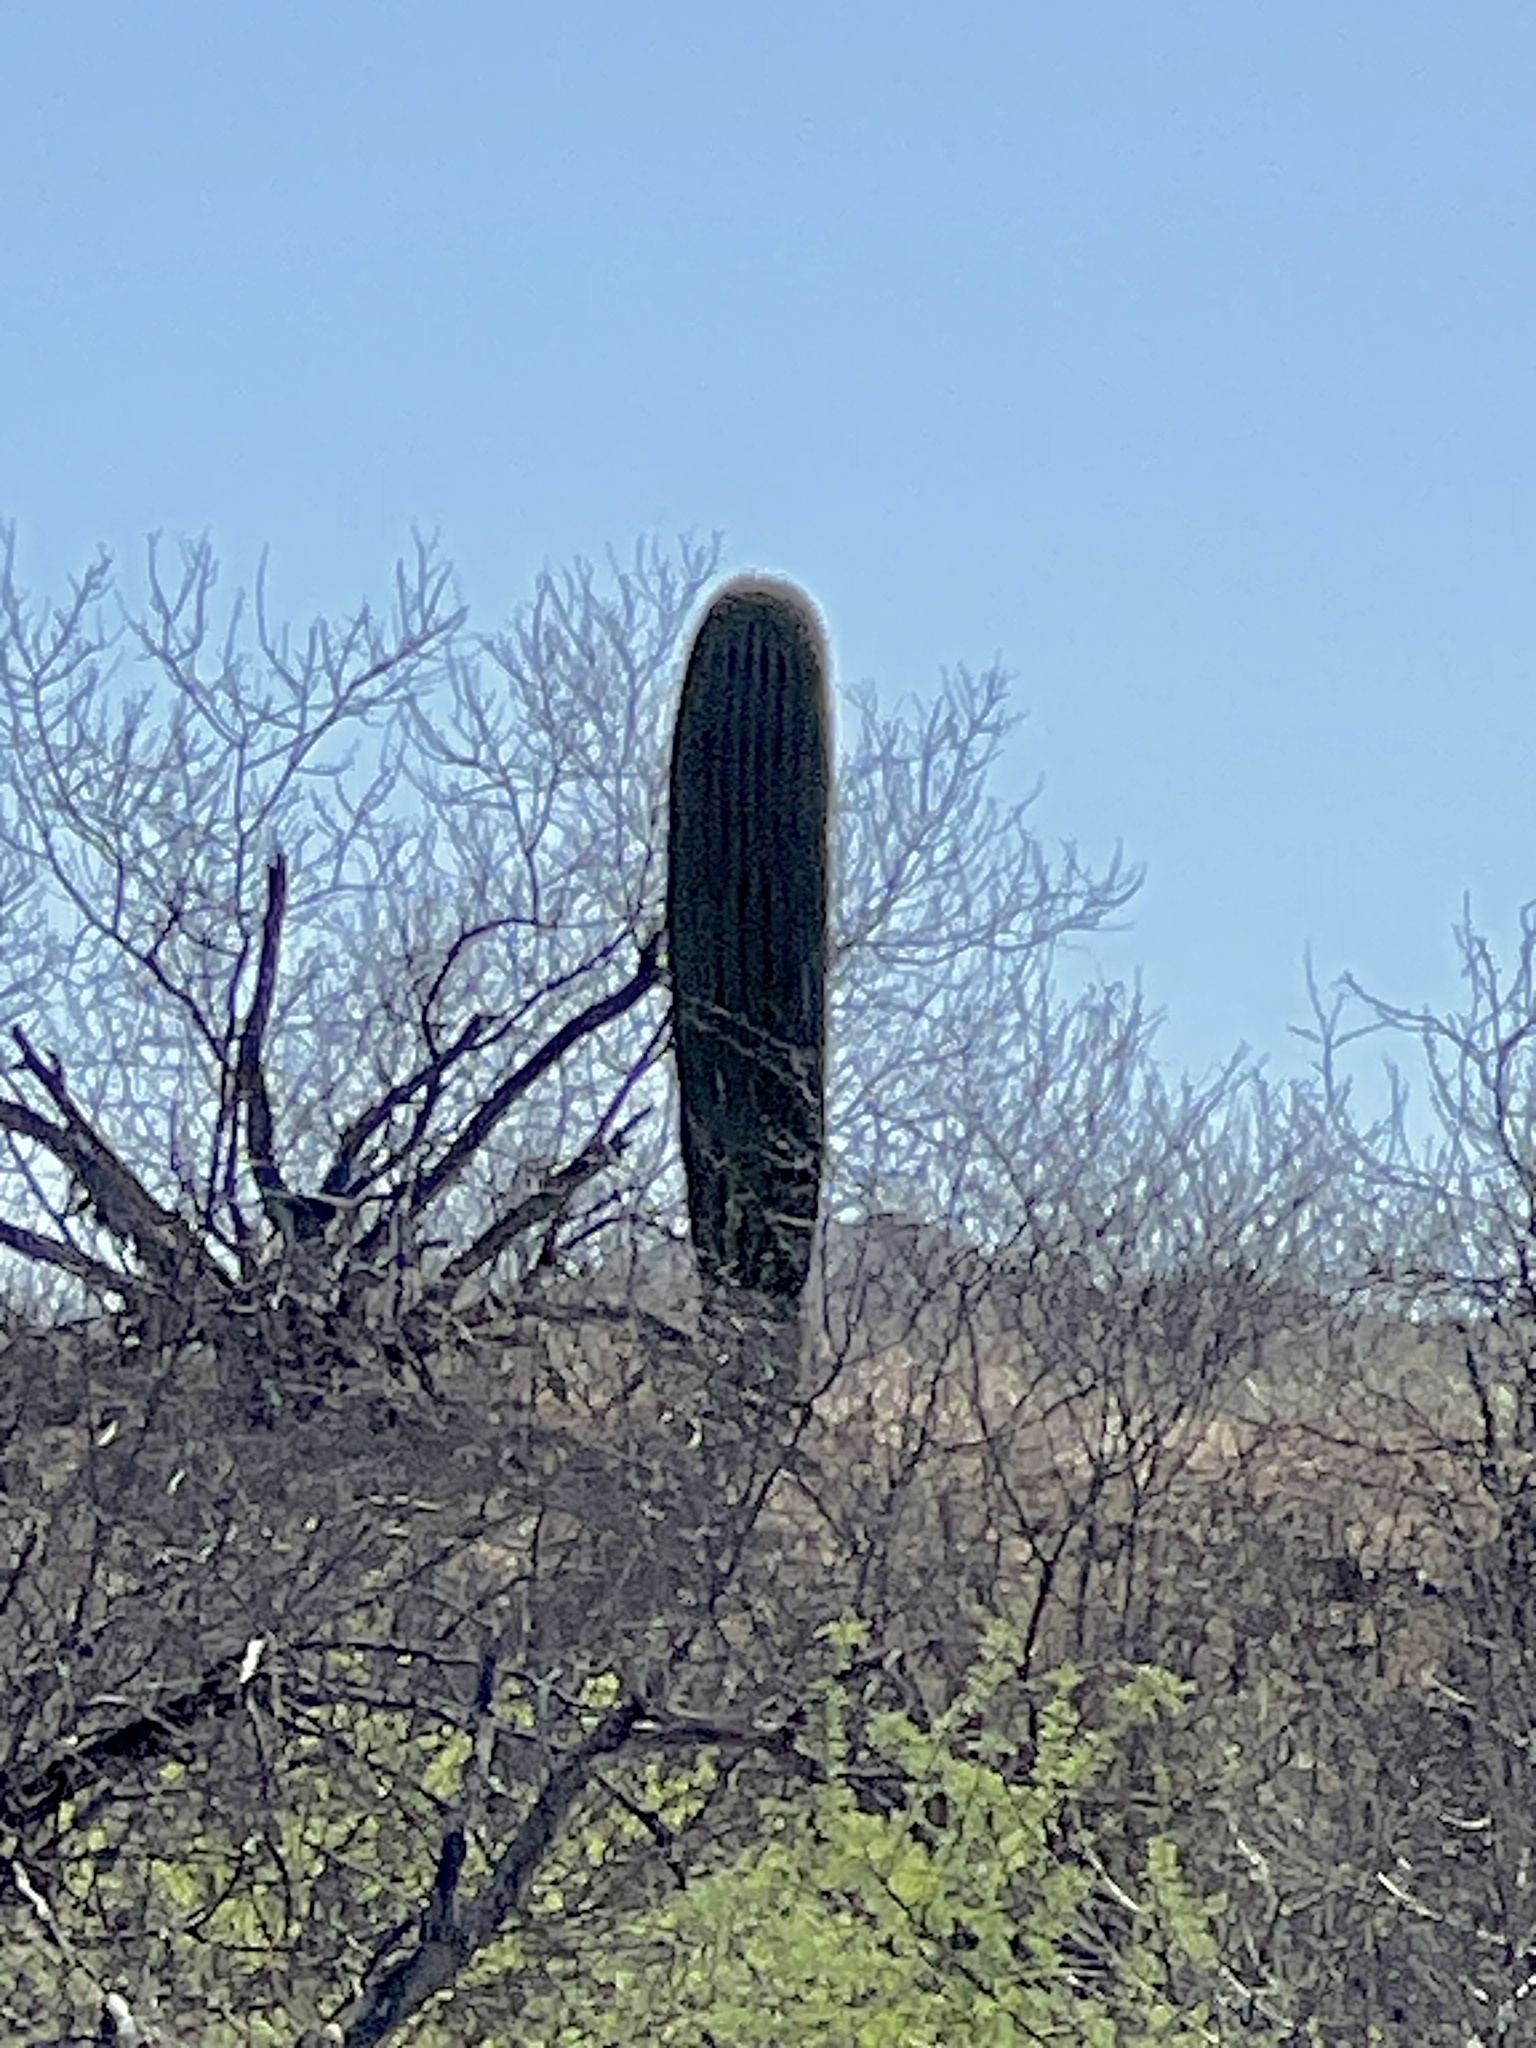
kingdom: Plantae
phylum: Tracheophyta
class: Magnoliopsida
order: Caryophyllales
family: Cactaceae
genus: Carnegiea
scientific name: Carnegiea gigantea
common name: Saguaro
